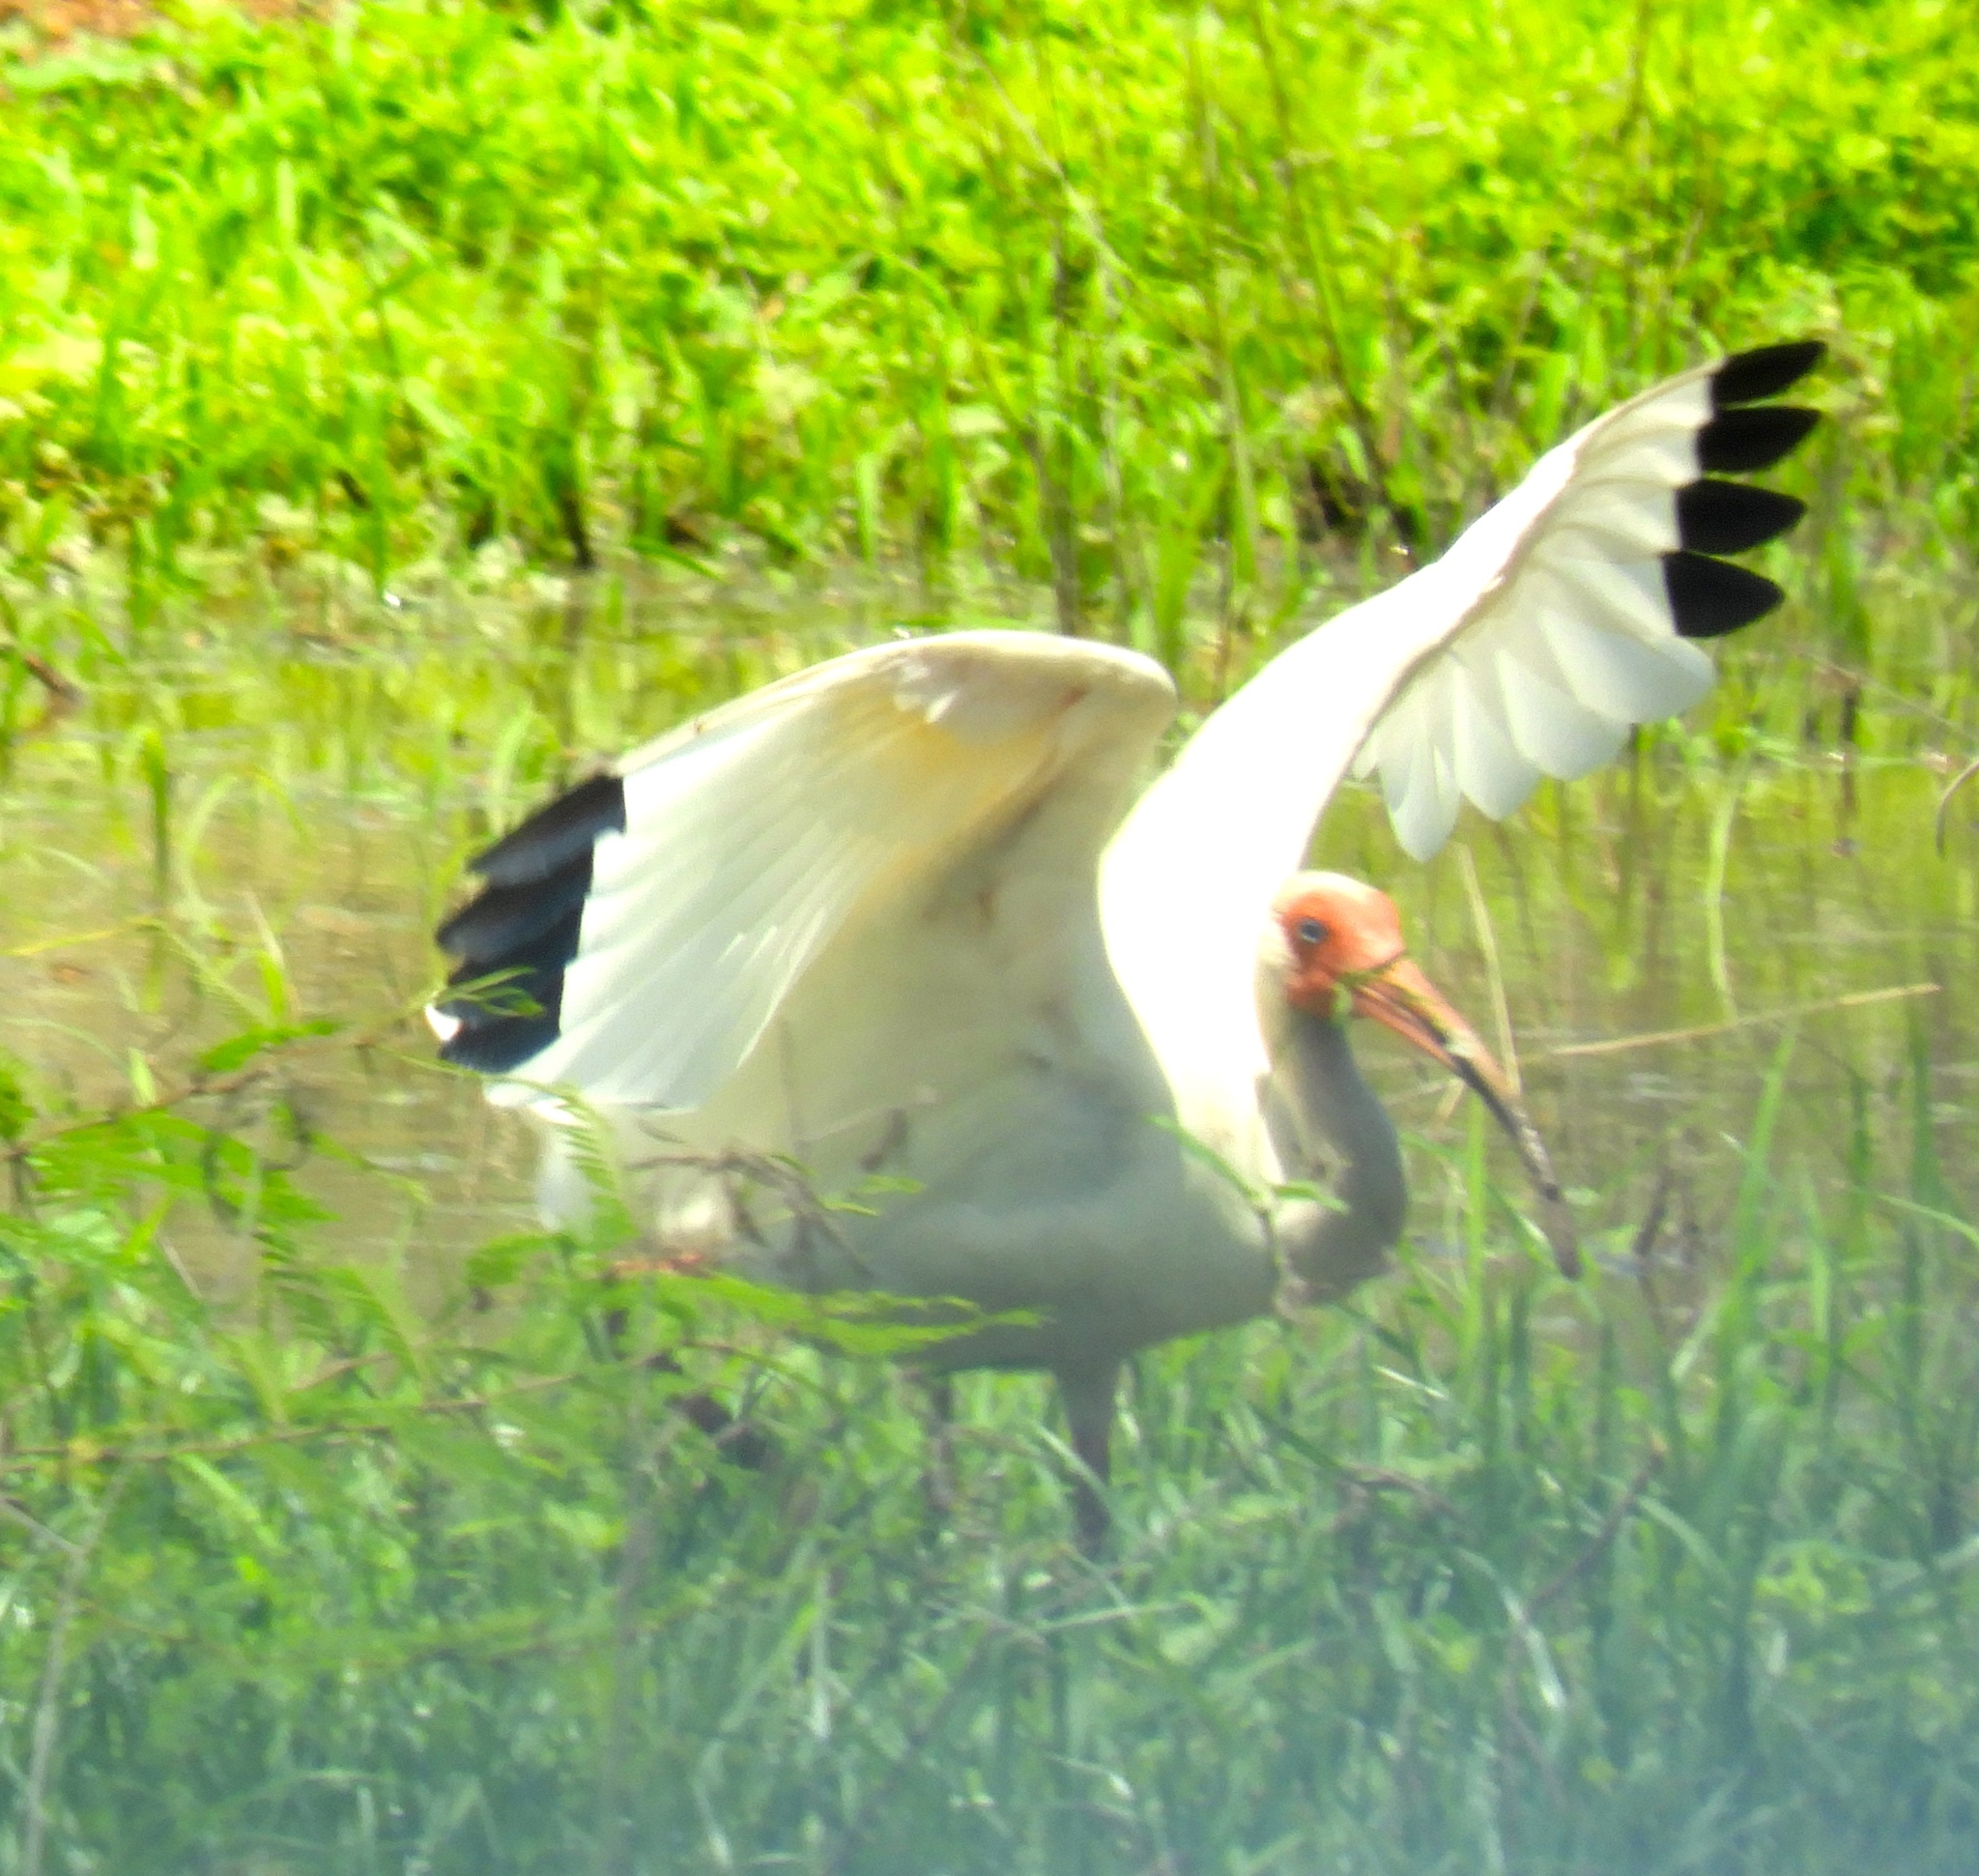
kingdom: Animalia
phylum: Chordata
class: Aves
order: Pelecaniformes
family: Threskiornithidae
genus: Eudocimus
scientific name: Eudocimus albus
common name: White ibis
